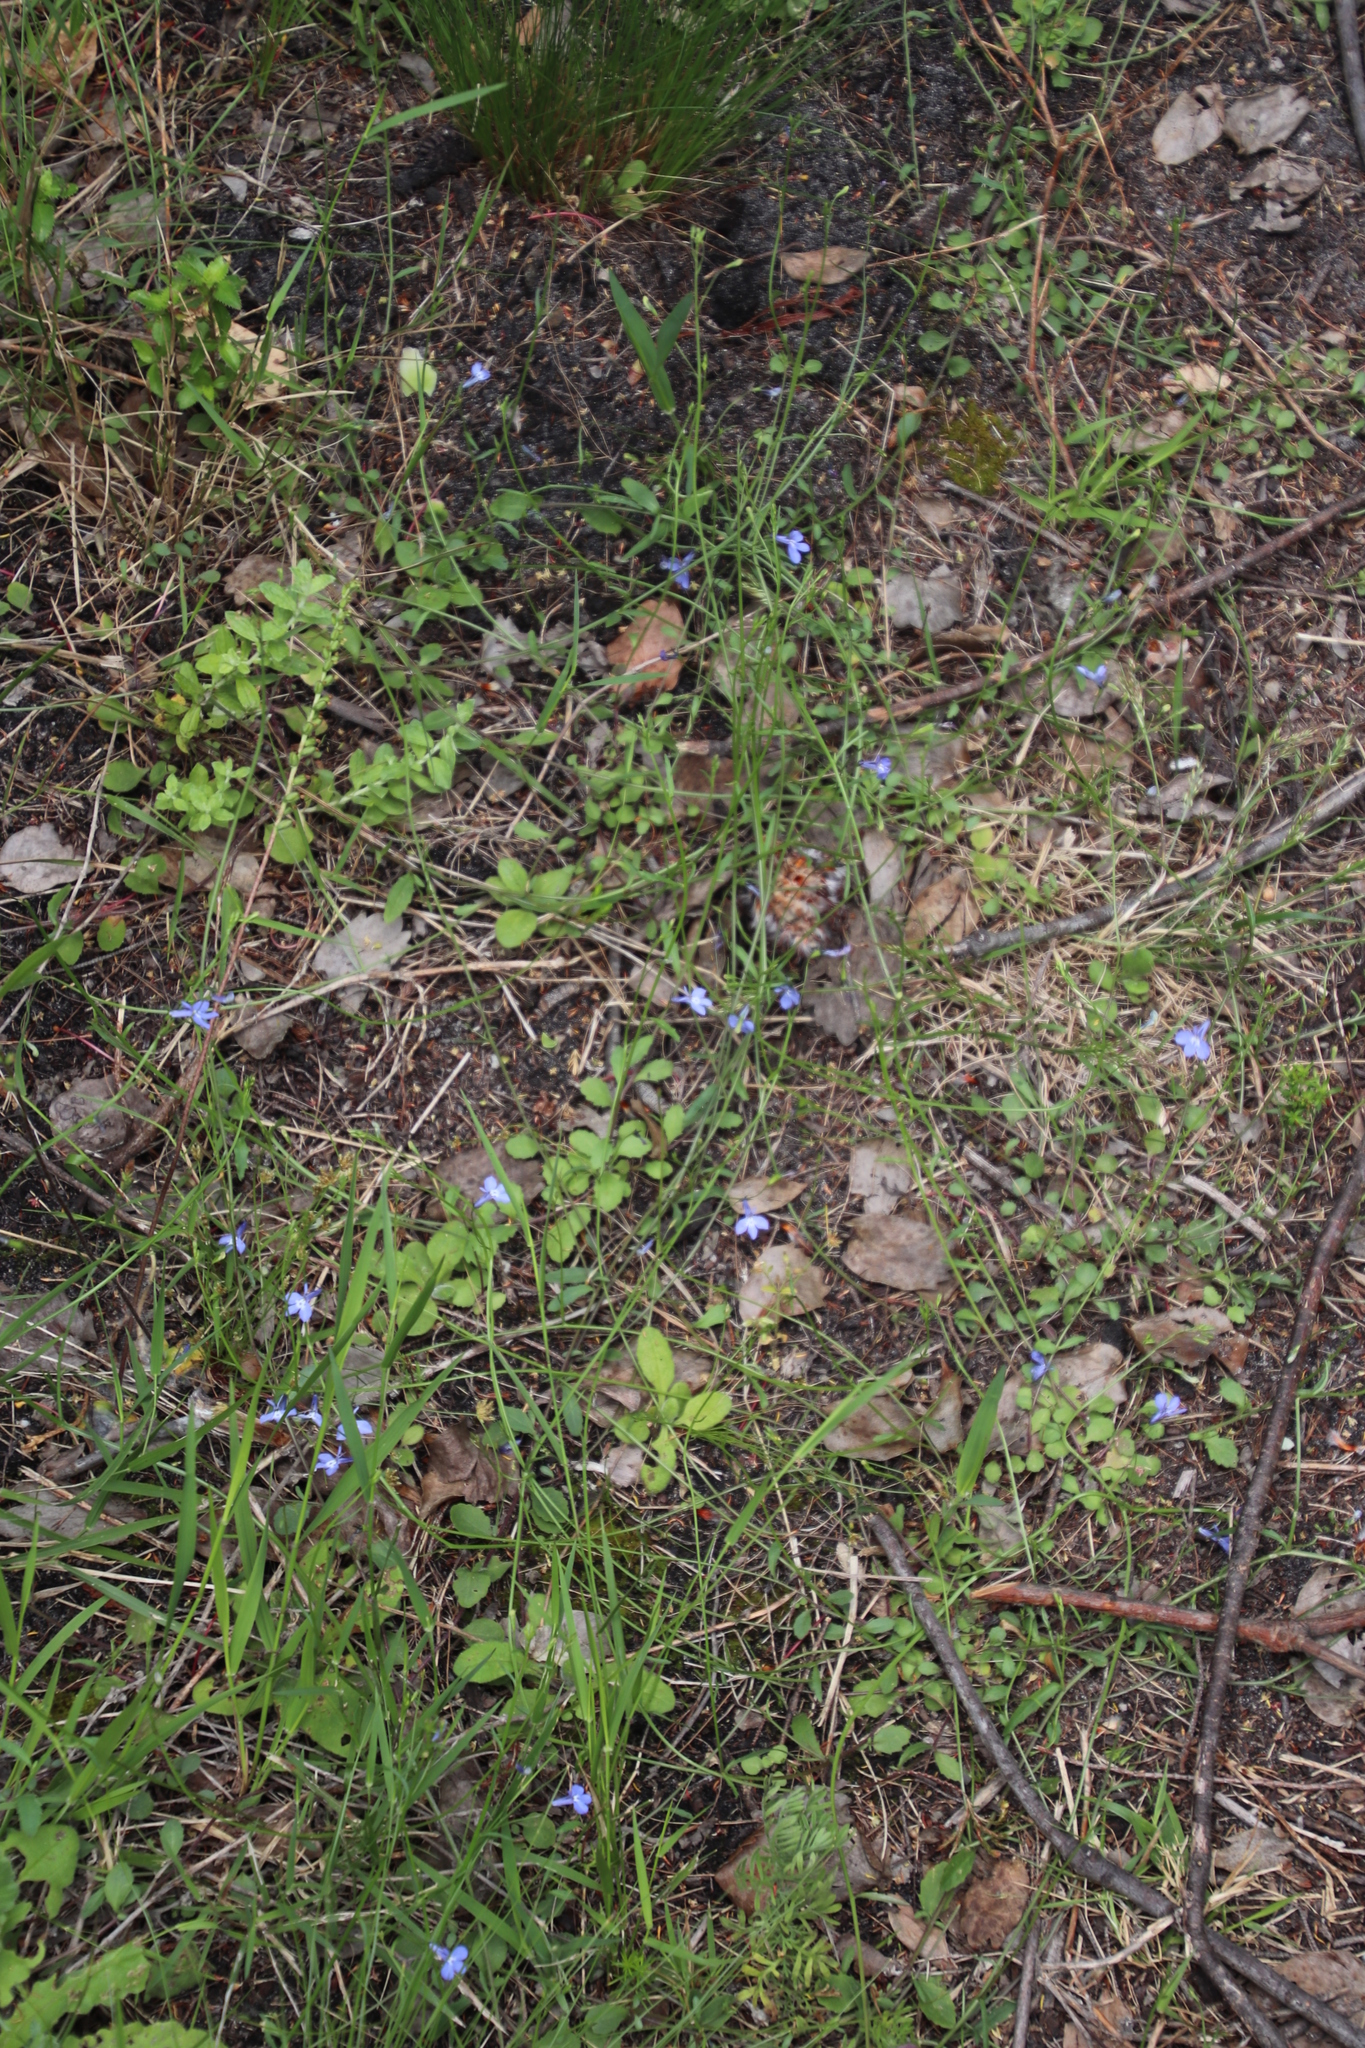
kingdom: Plantae
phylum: Tracheophyta
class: Magnoliopsida
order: Asterales
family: Campanulaceae
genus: Lobelia
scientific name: Lobelia erinus
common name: Edging lobelia
